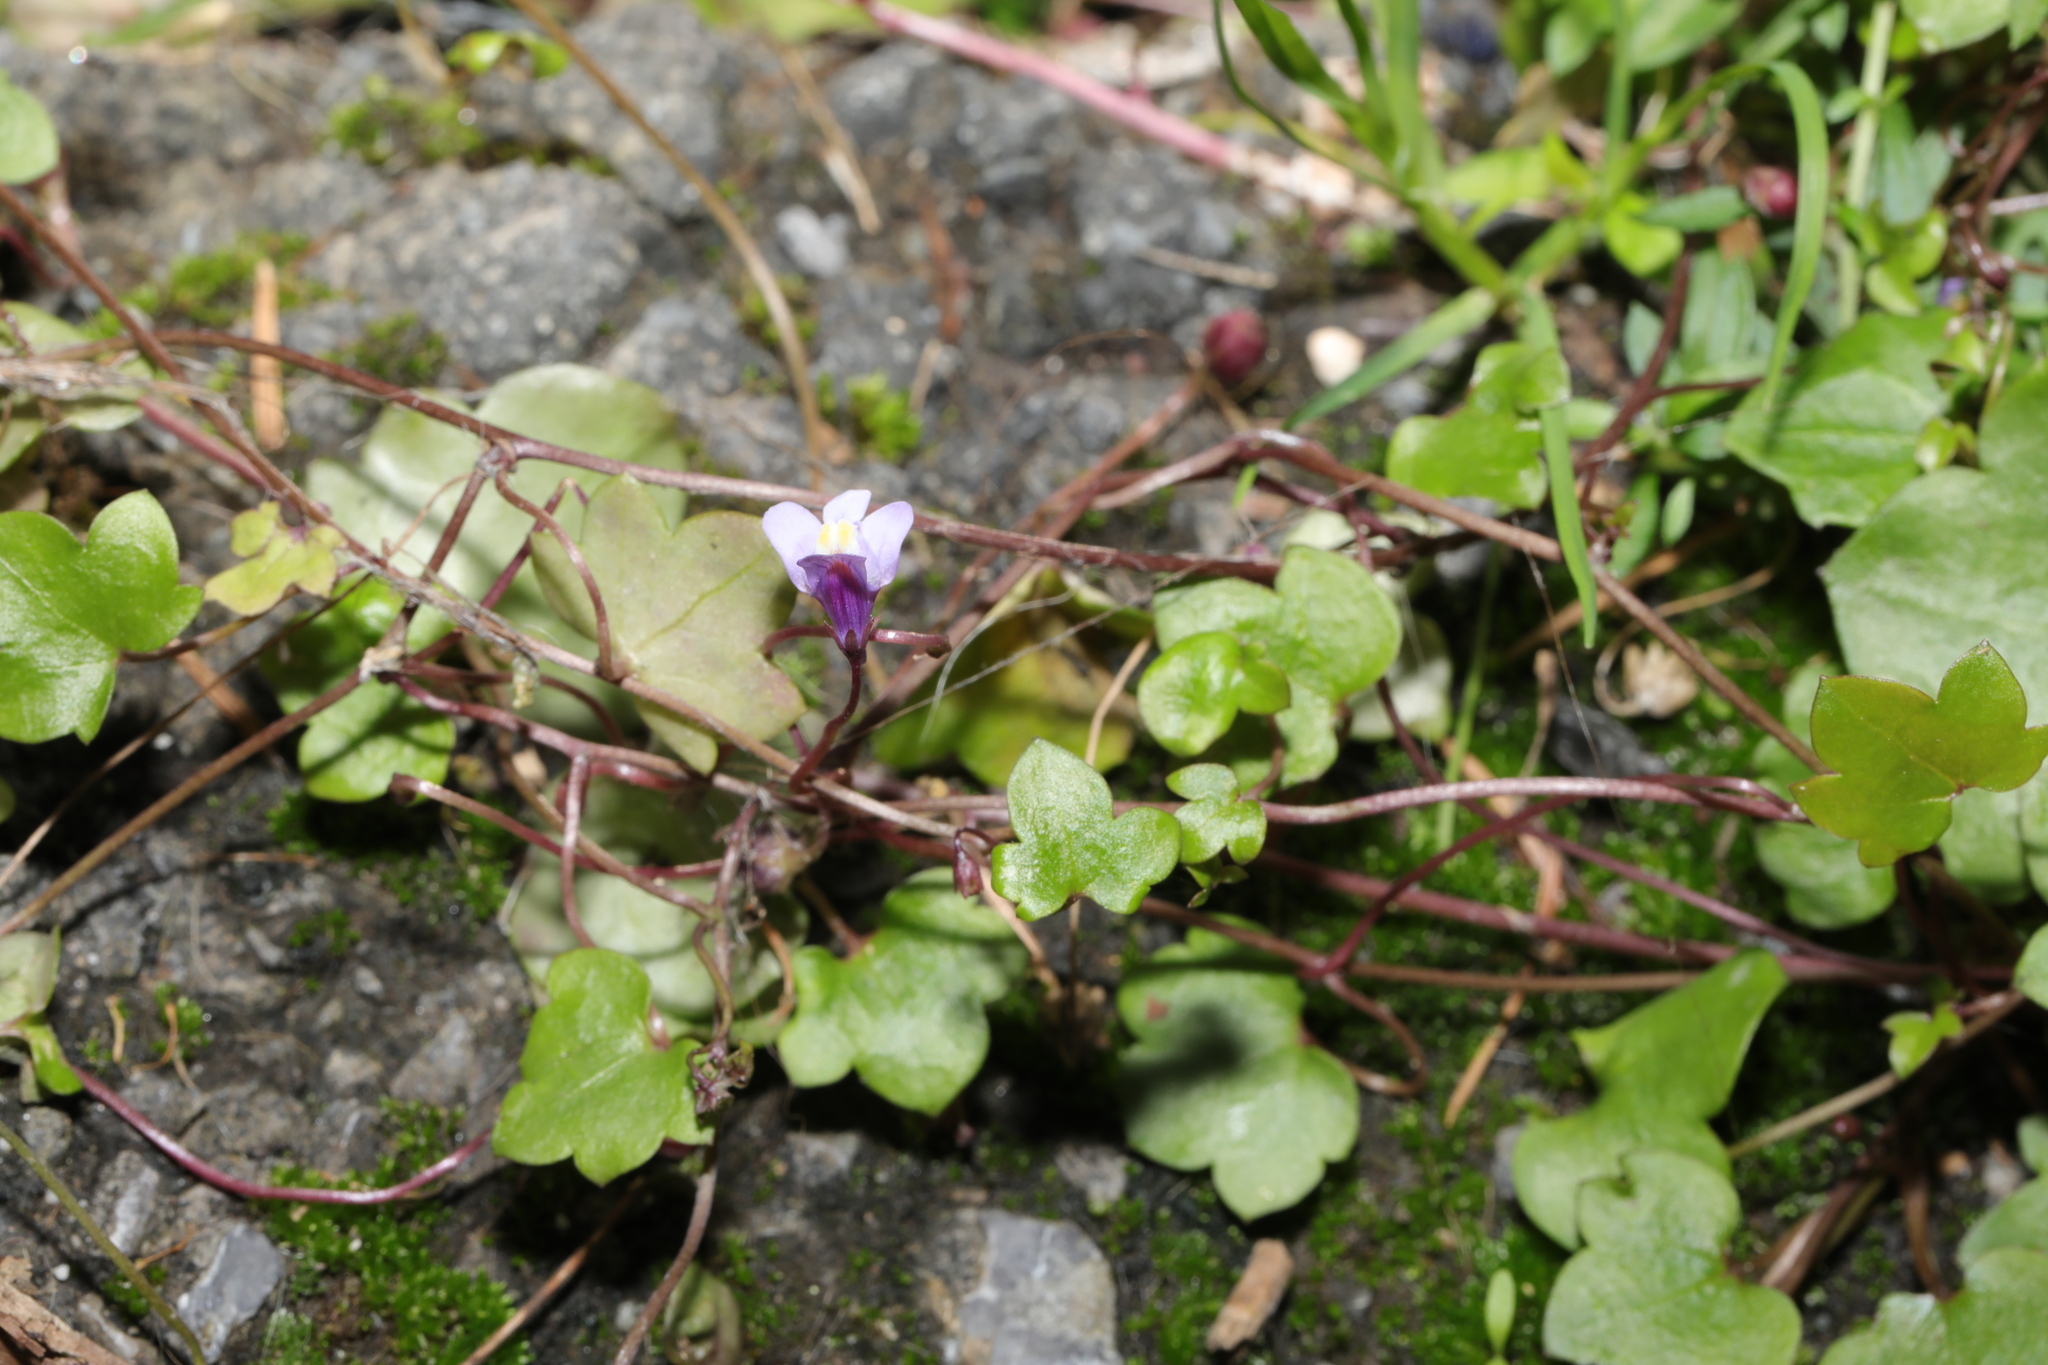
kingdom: Plantae
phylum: Tracheophyta
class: Magnoliopsida
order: Lamiales
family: Plantaginaceae
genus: Cymbalaria
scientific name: Cymbalaria muralis
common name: Ivy-leaved toadflax
